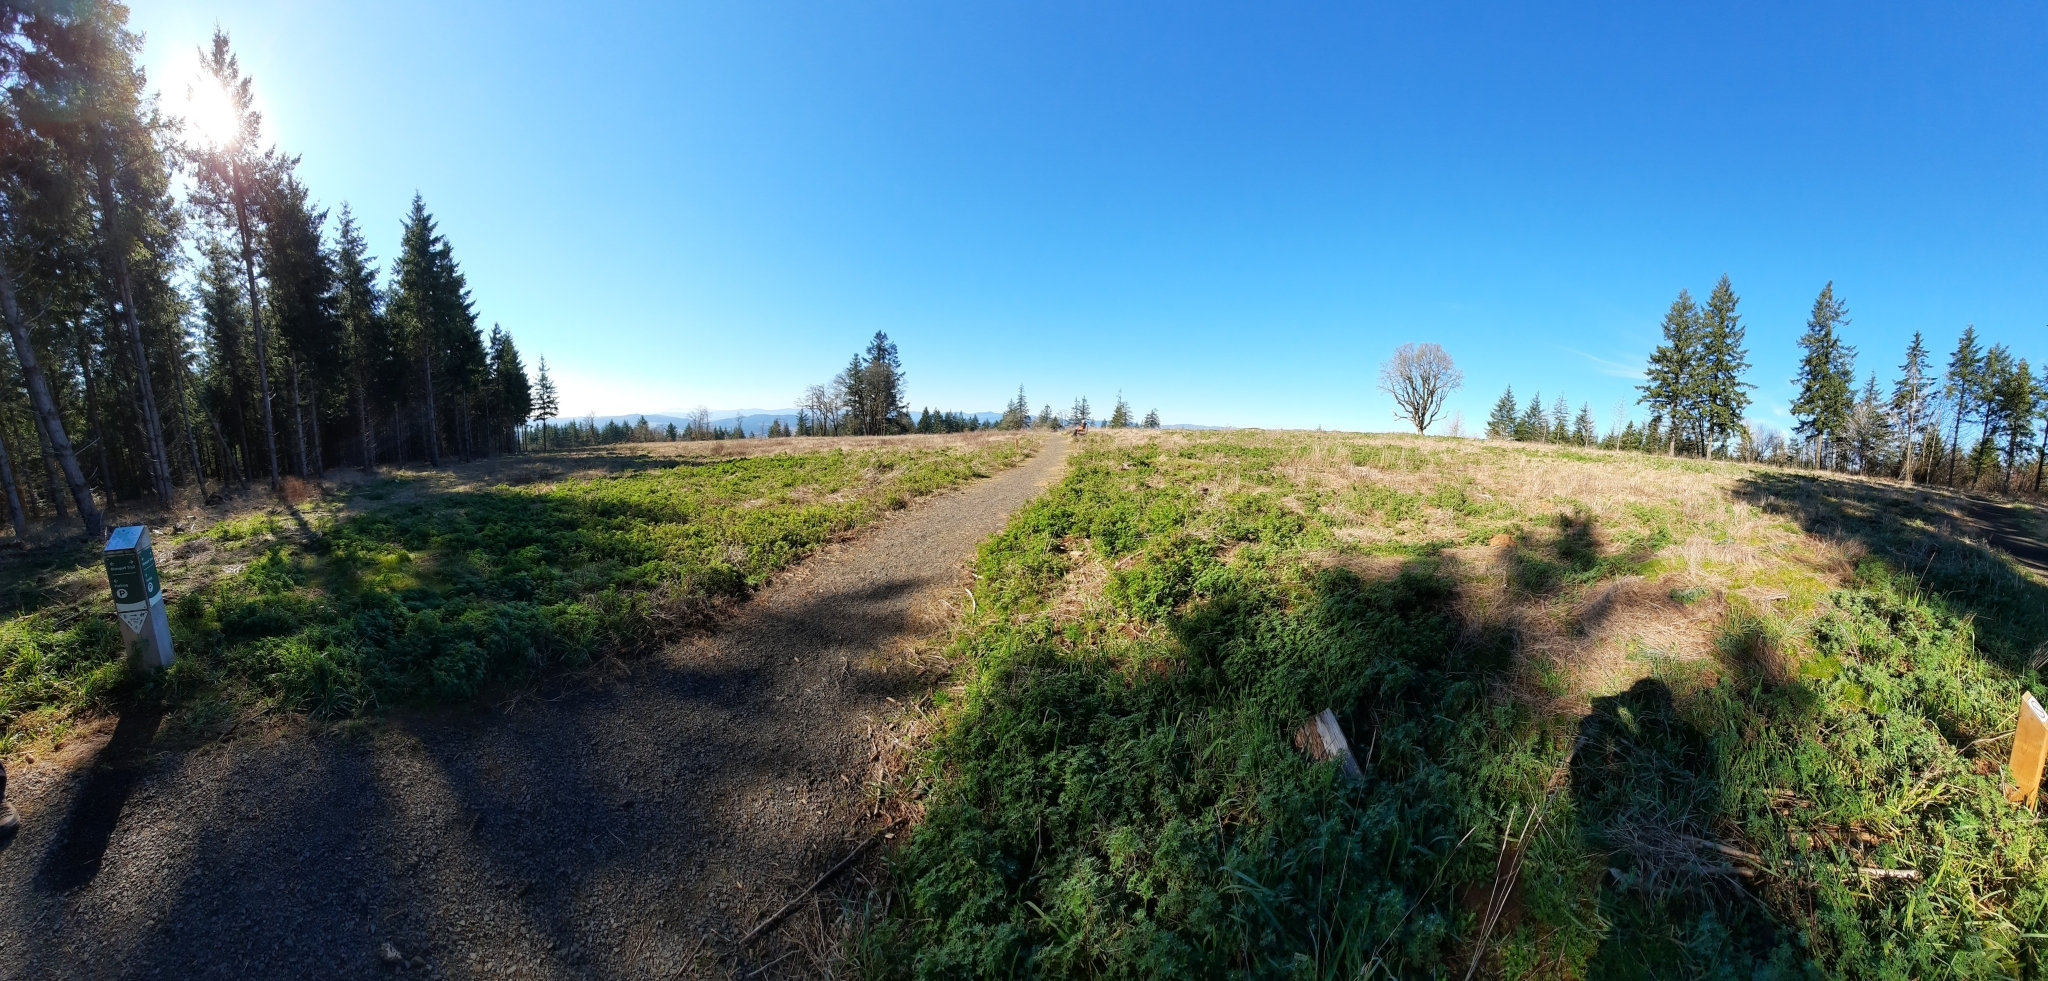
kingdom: Plantae
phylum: Tracheophyta
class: Magnoliopsida
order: Fagales
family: Fagaceae
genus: Quercus
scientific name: Quercus garryana
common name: Garry oak
